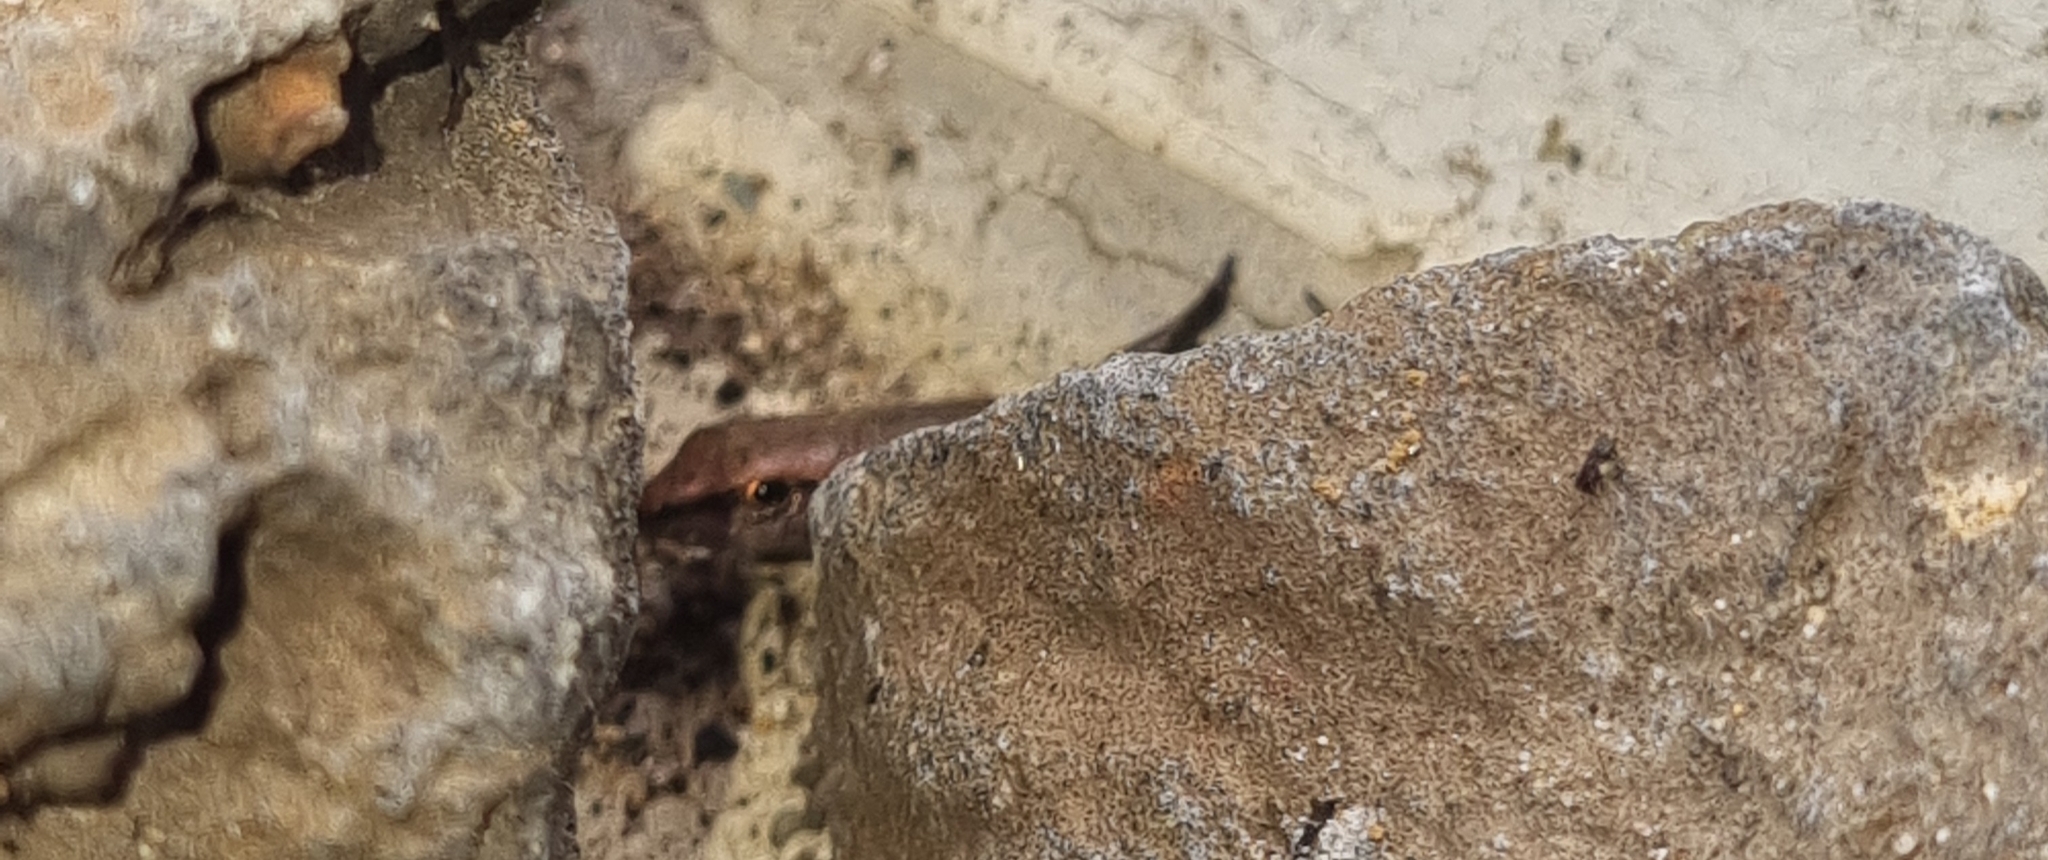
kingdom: Animalia
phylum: Chordata
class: Squamata
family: Scincidae
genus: Lampropholis
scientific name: Lampropholis delicata
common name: Plague skink
